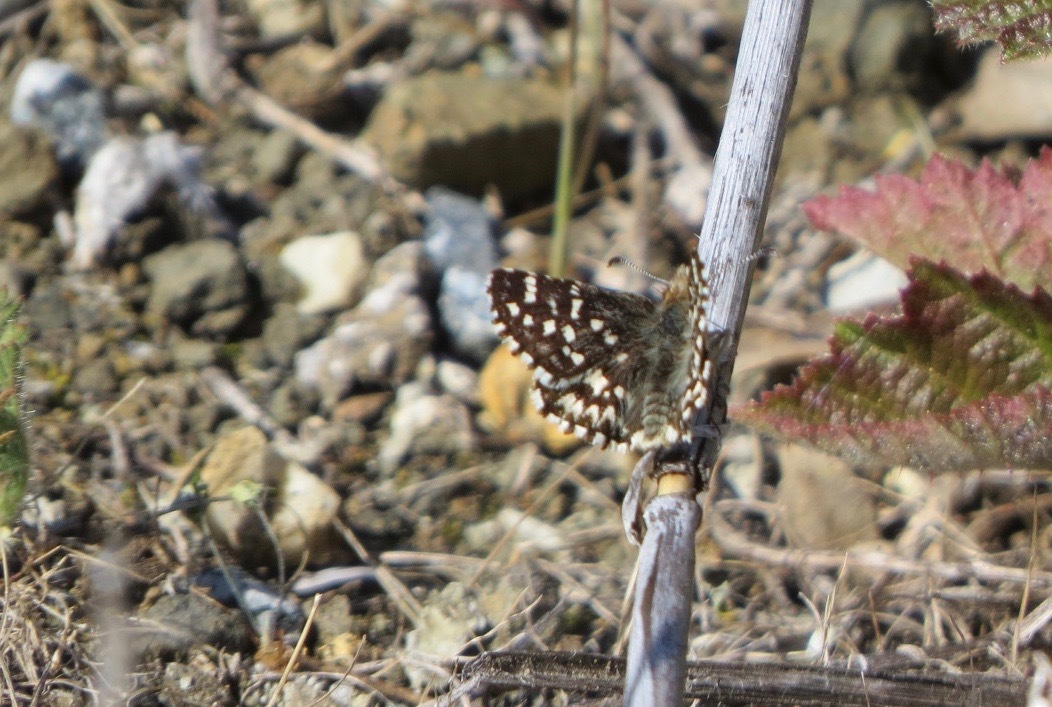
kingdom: Animalia
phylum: Arthropoda
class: Insecta
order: Lepidoptera
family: Hesperiidae
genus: Pyrgus
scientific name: Pyrgus ruralis
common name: Two-banded checkered-skipper
